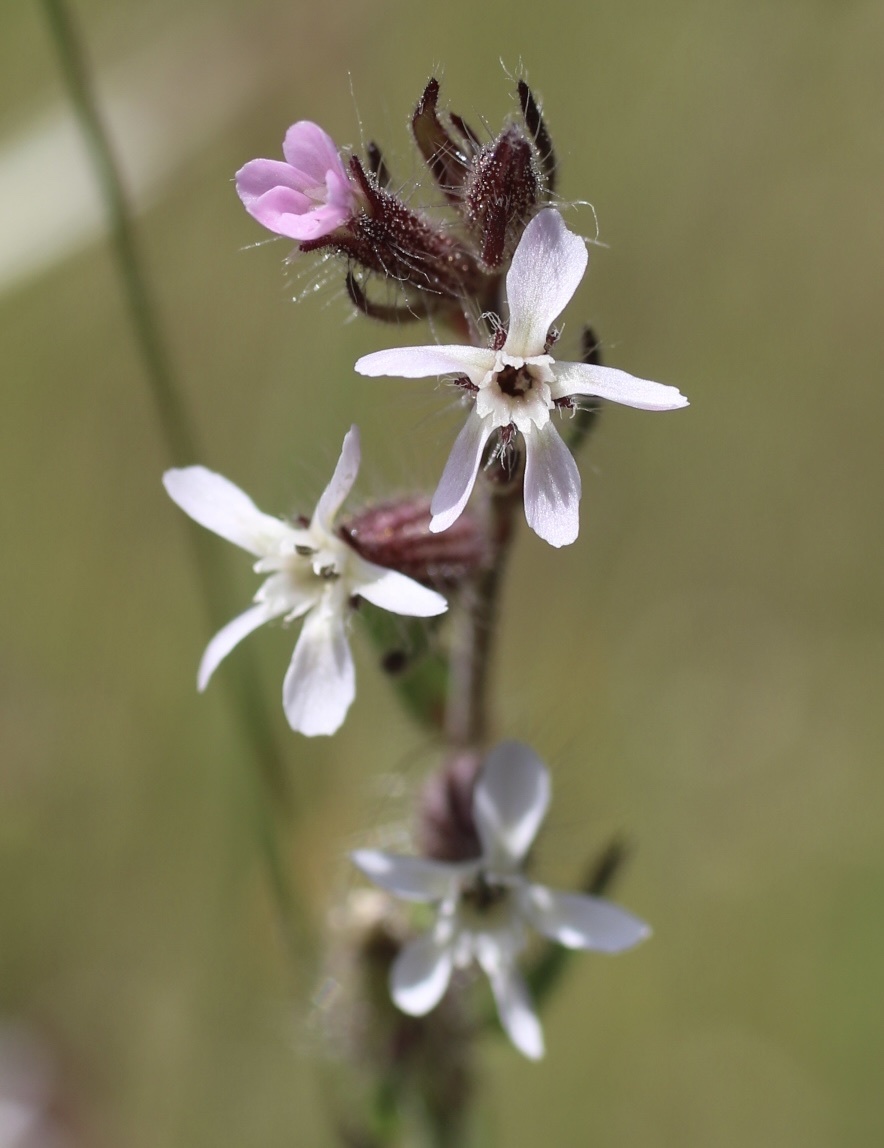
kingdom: Plantae
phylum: Tracheophyta
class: Magnoliopsida
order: Caryophyllales
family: Caryophyllaceae
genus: Silene
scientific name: Silene gallica
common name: Small-flowered catchfly
